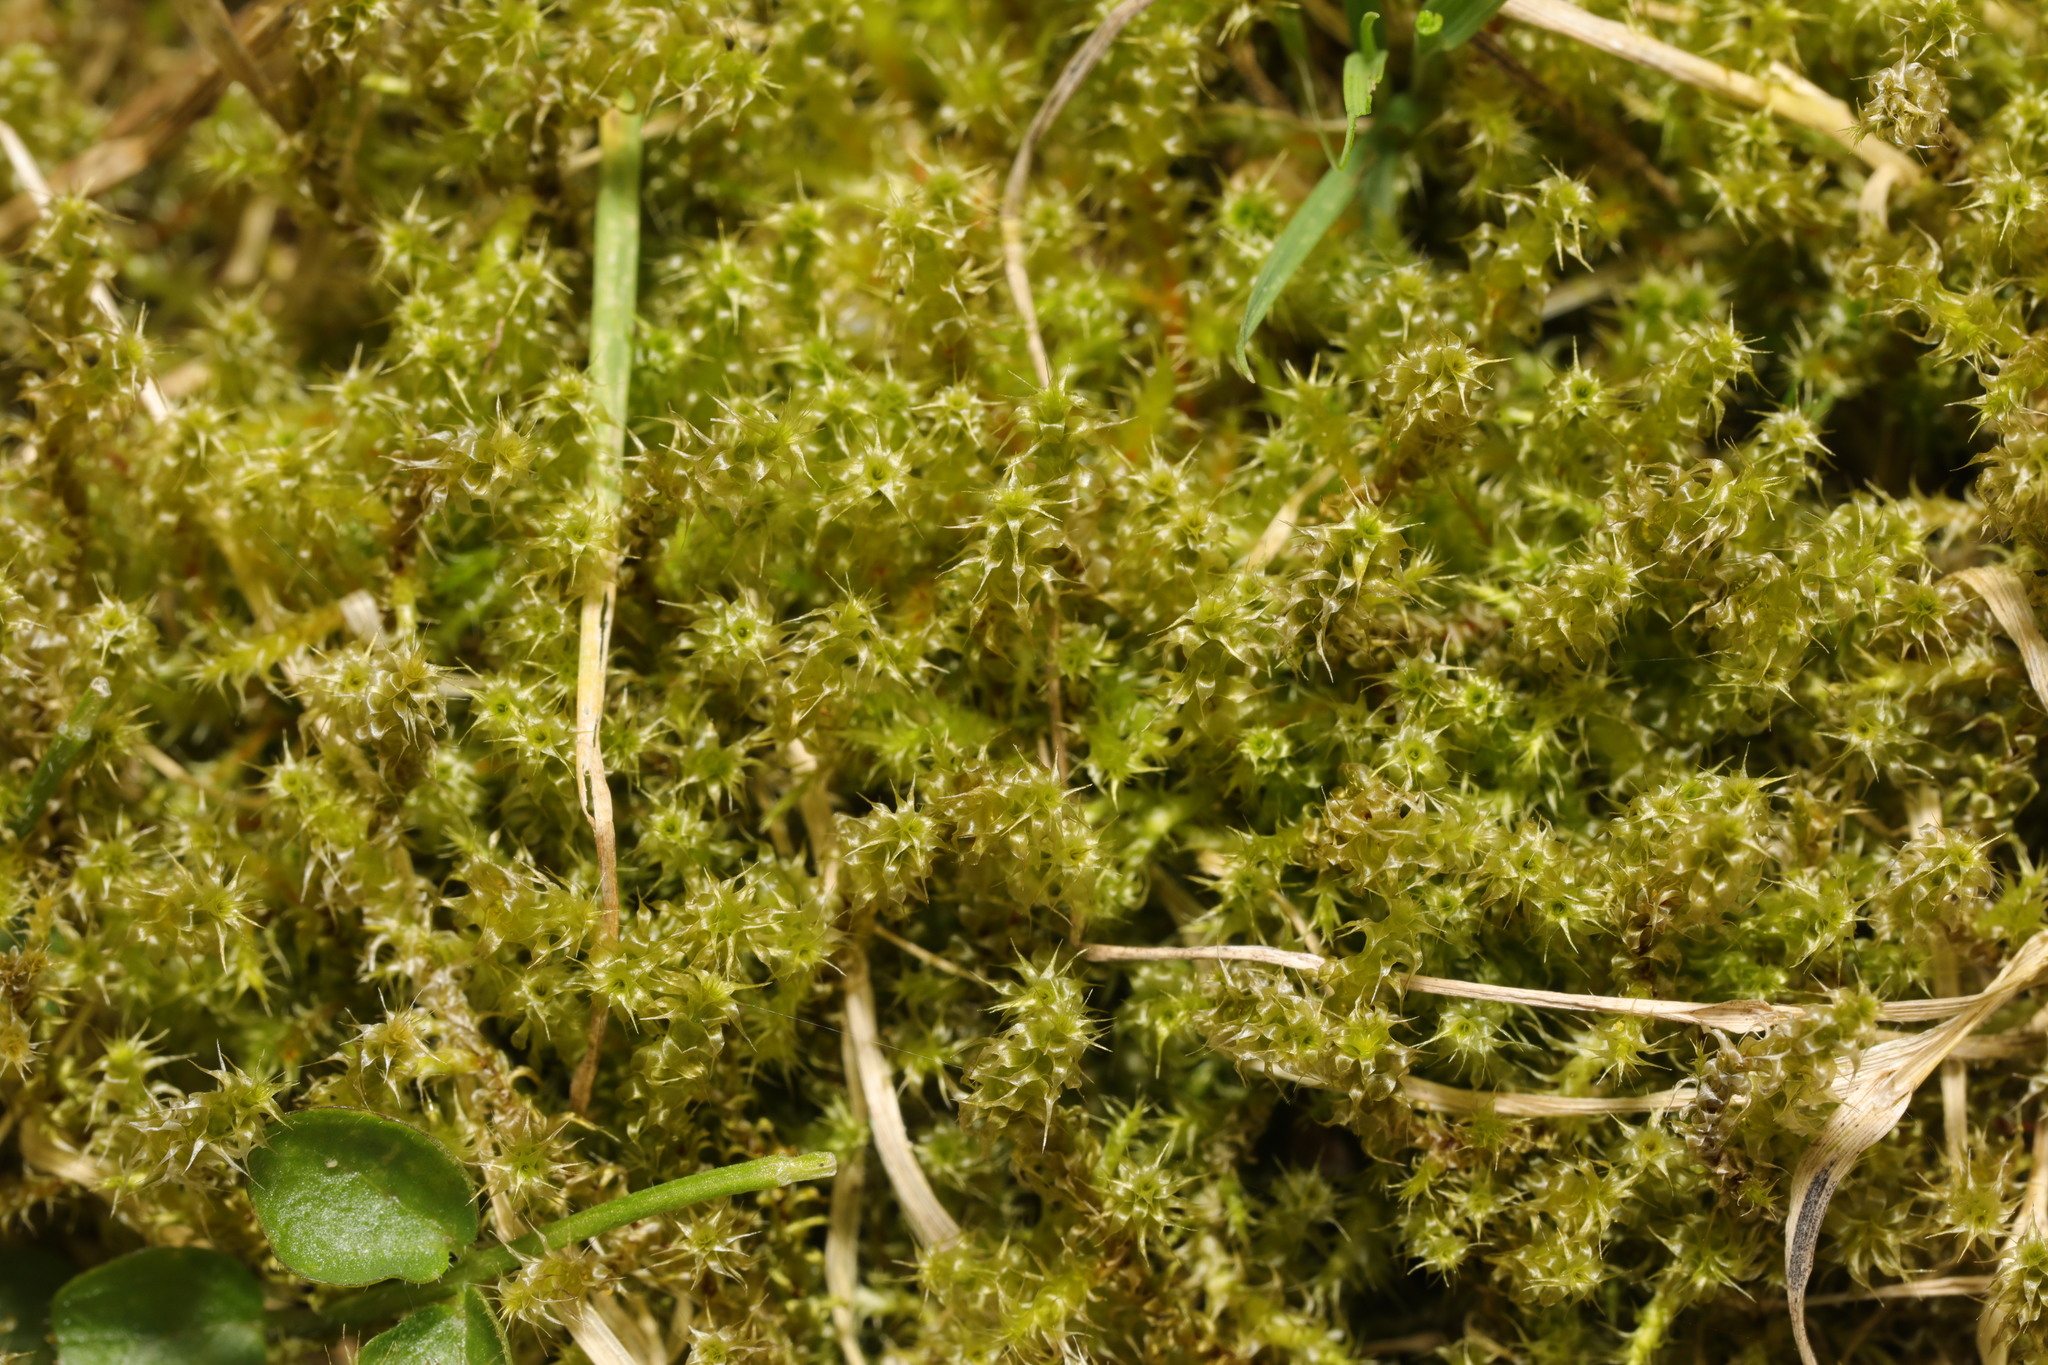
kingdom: Plantae
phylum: Bryophyta
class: Bryopsida
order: Hypnales
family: Hylocomiaceae
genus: Rhytidiadelphus
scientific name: Rhytidiadelphus squarrosus
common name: Springy turf-moss
